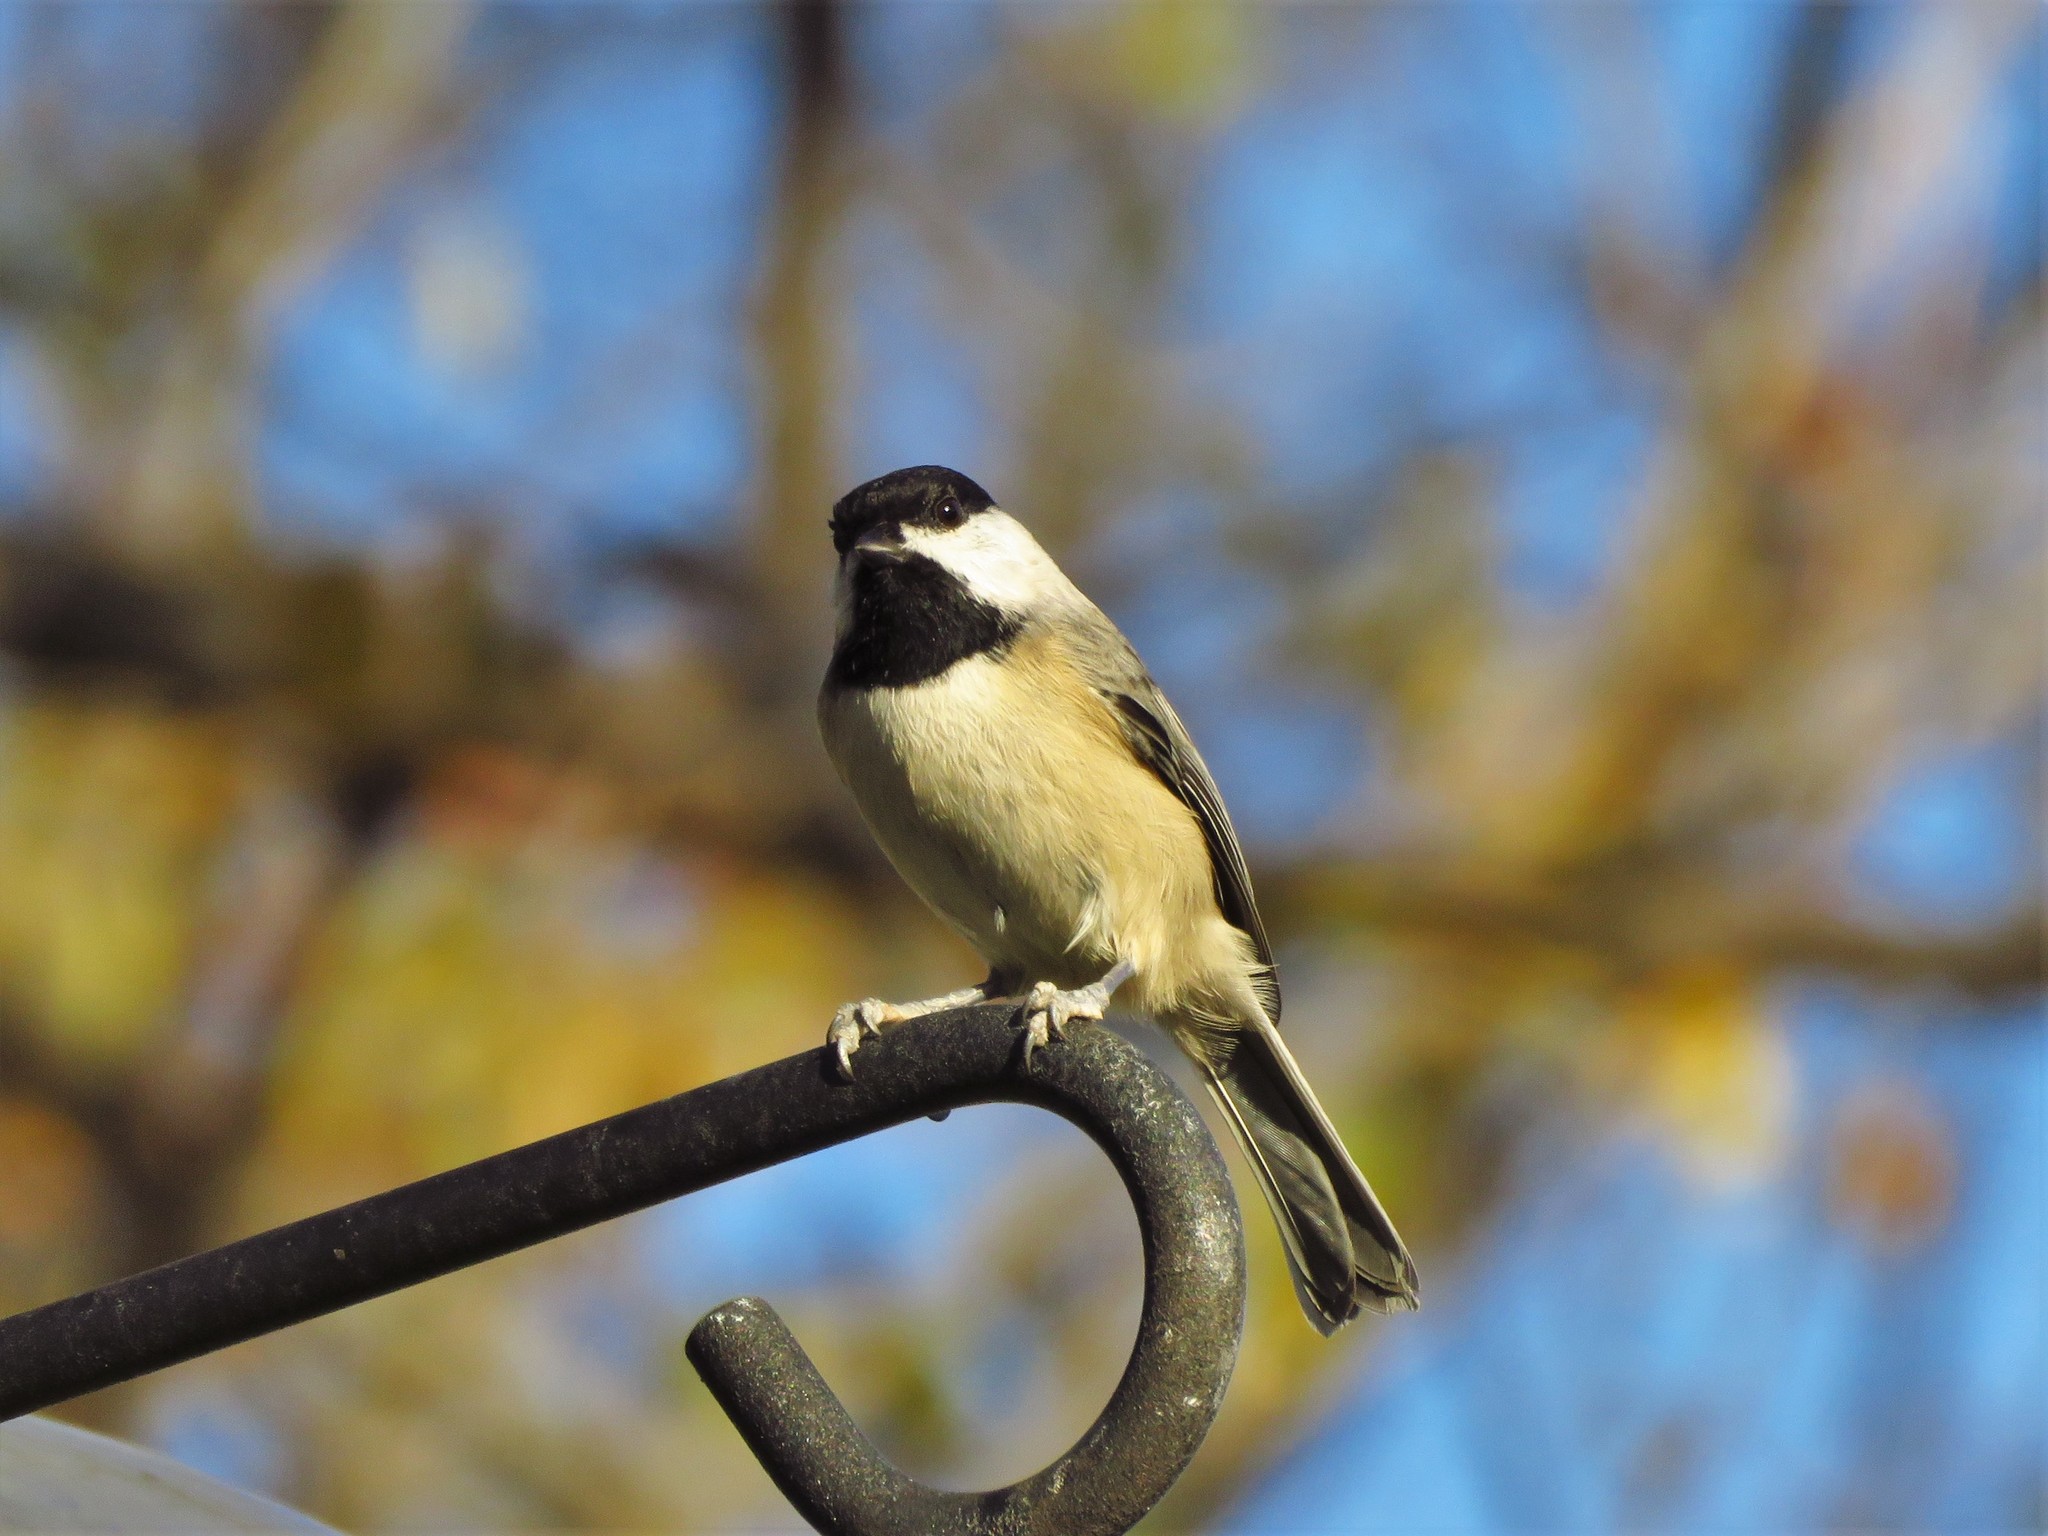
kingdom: Animalia
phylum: Chordata
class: Aves
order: Passeriformes
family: Paridae
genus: Poecile
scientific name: Poecile carolinensis
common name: Carolina chickadee
